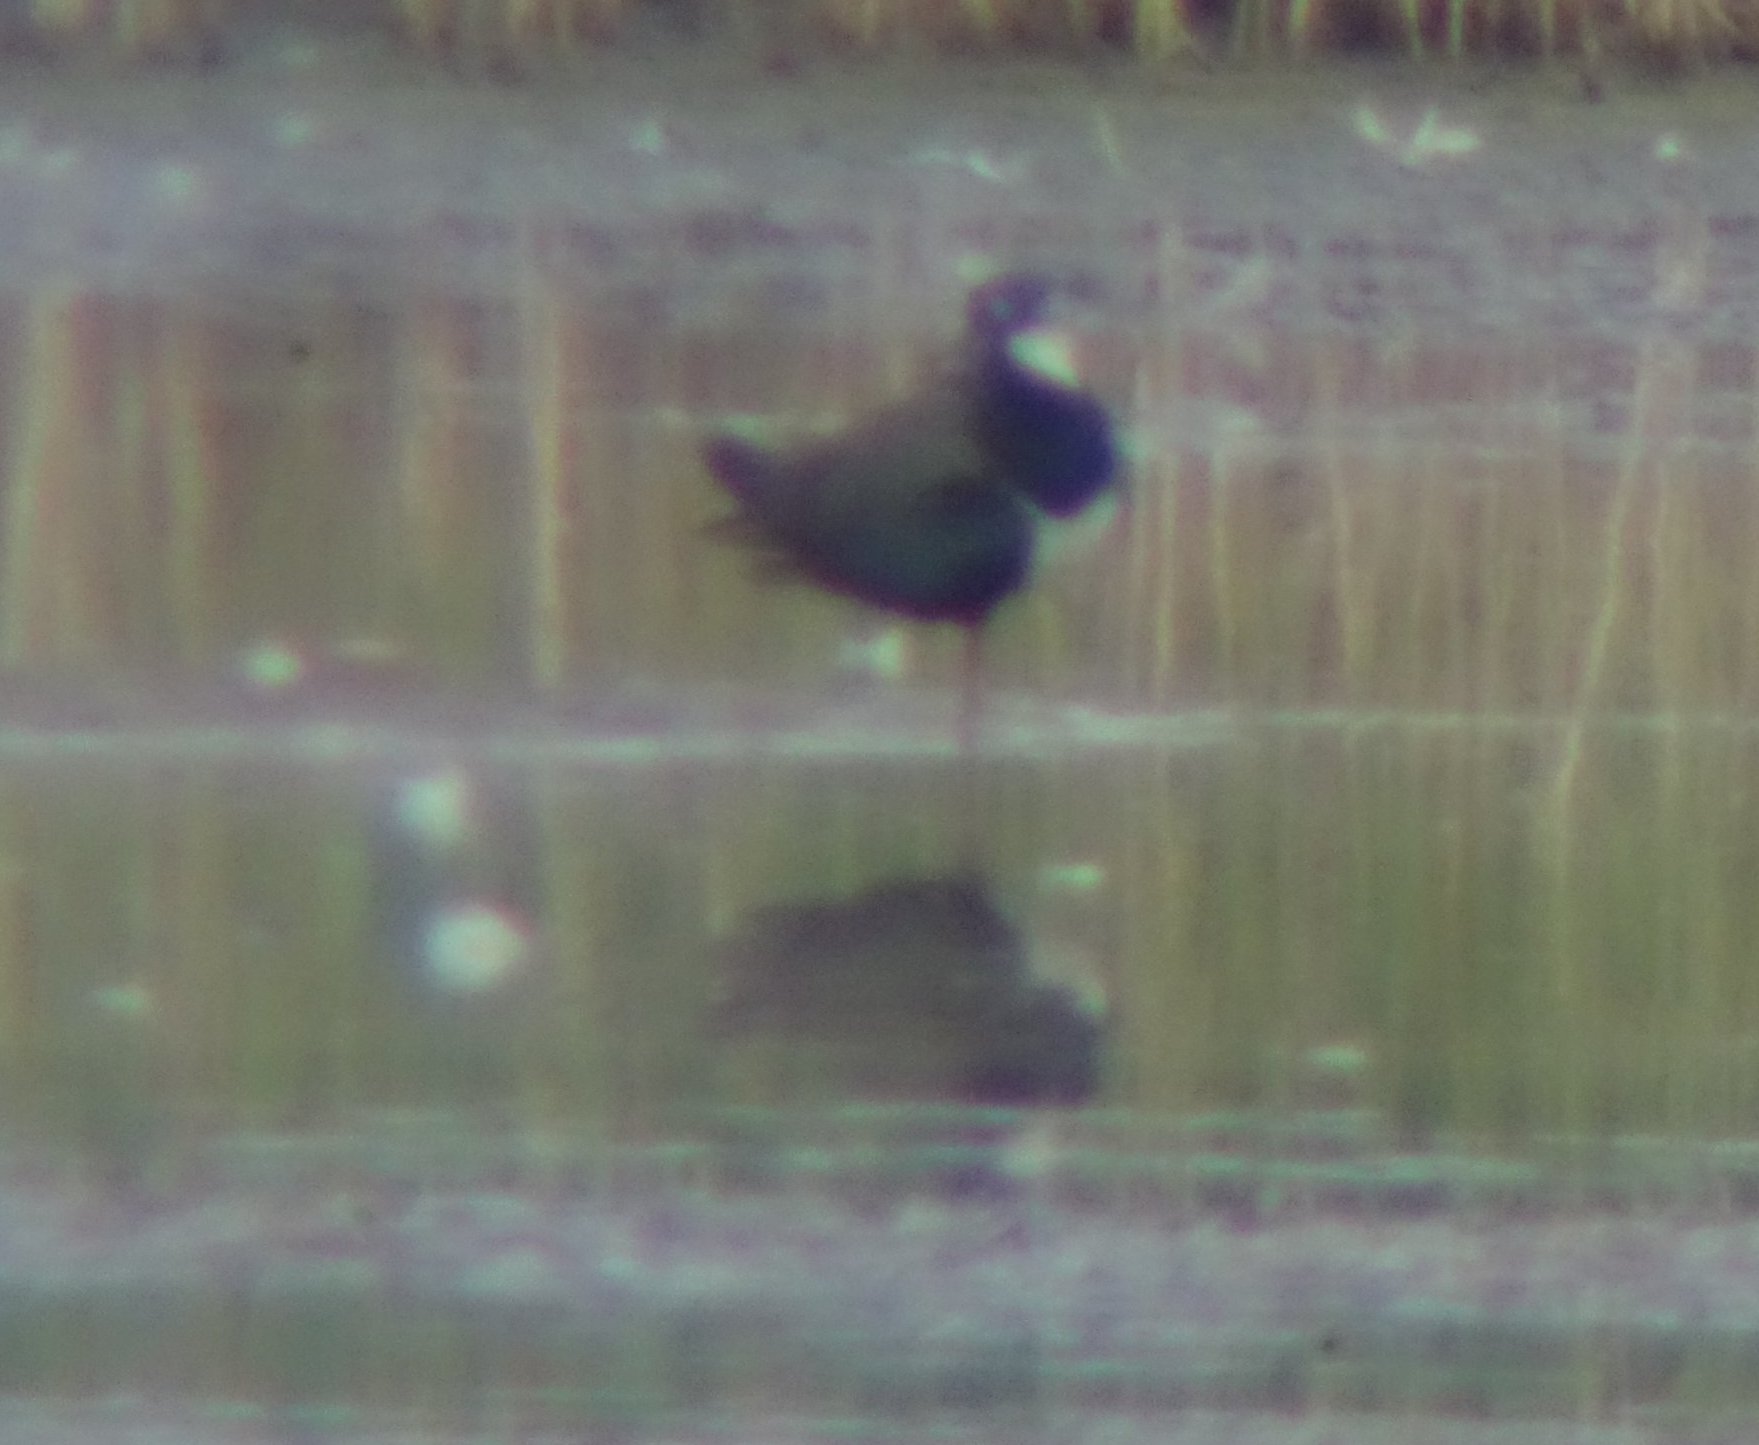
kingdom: Animalia
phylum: Chordata
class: Aves
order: Charadriiformes
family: Charadriidae
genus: Vanellus
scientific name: Vanellus vanellus
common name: Northern lapwing
